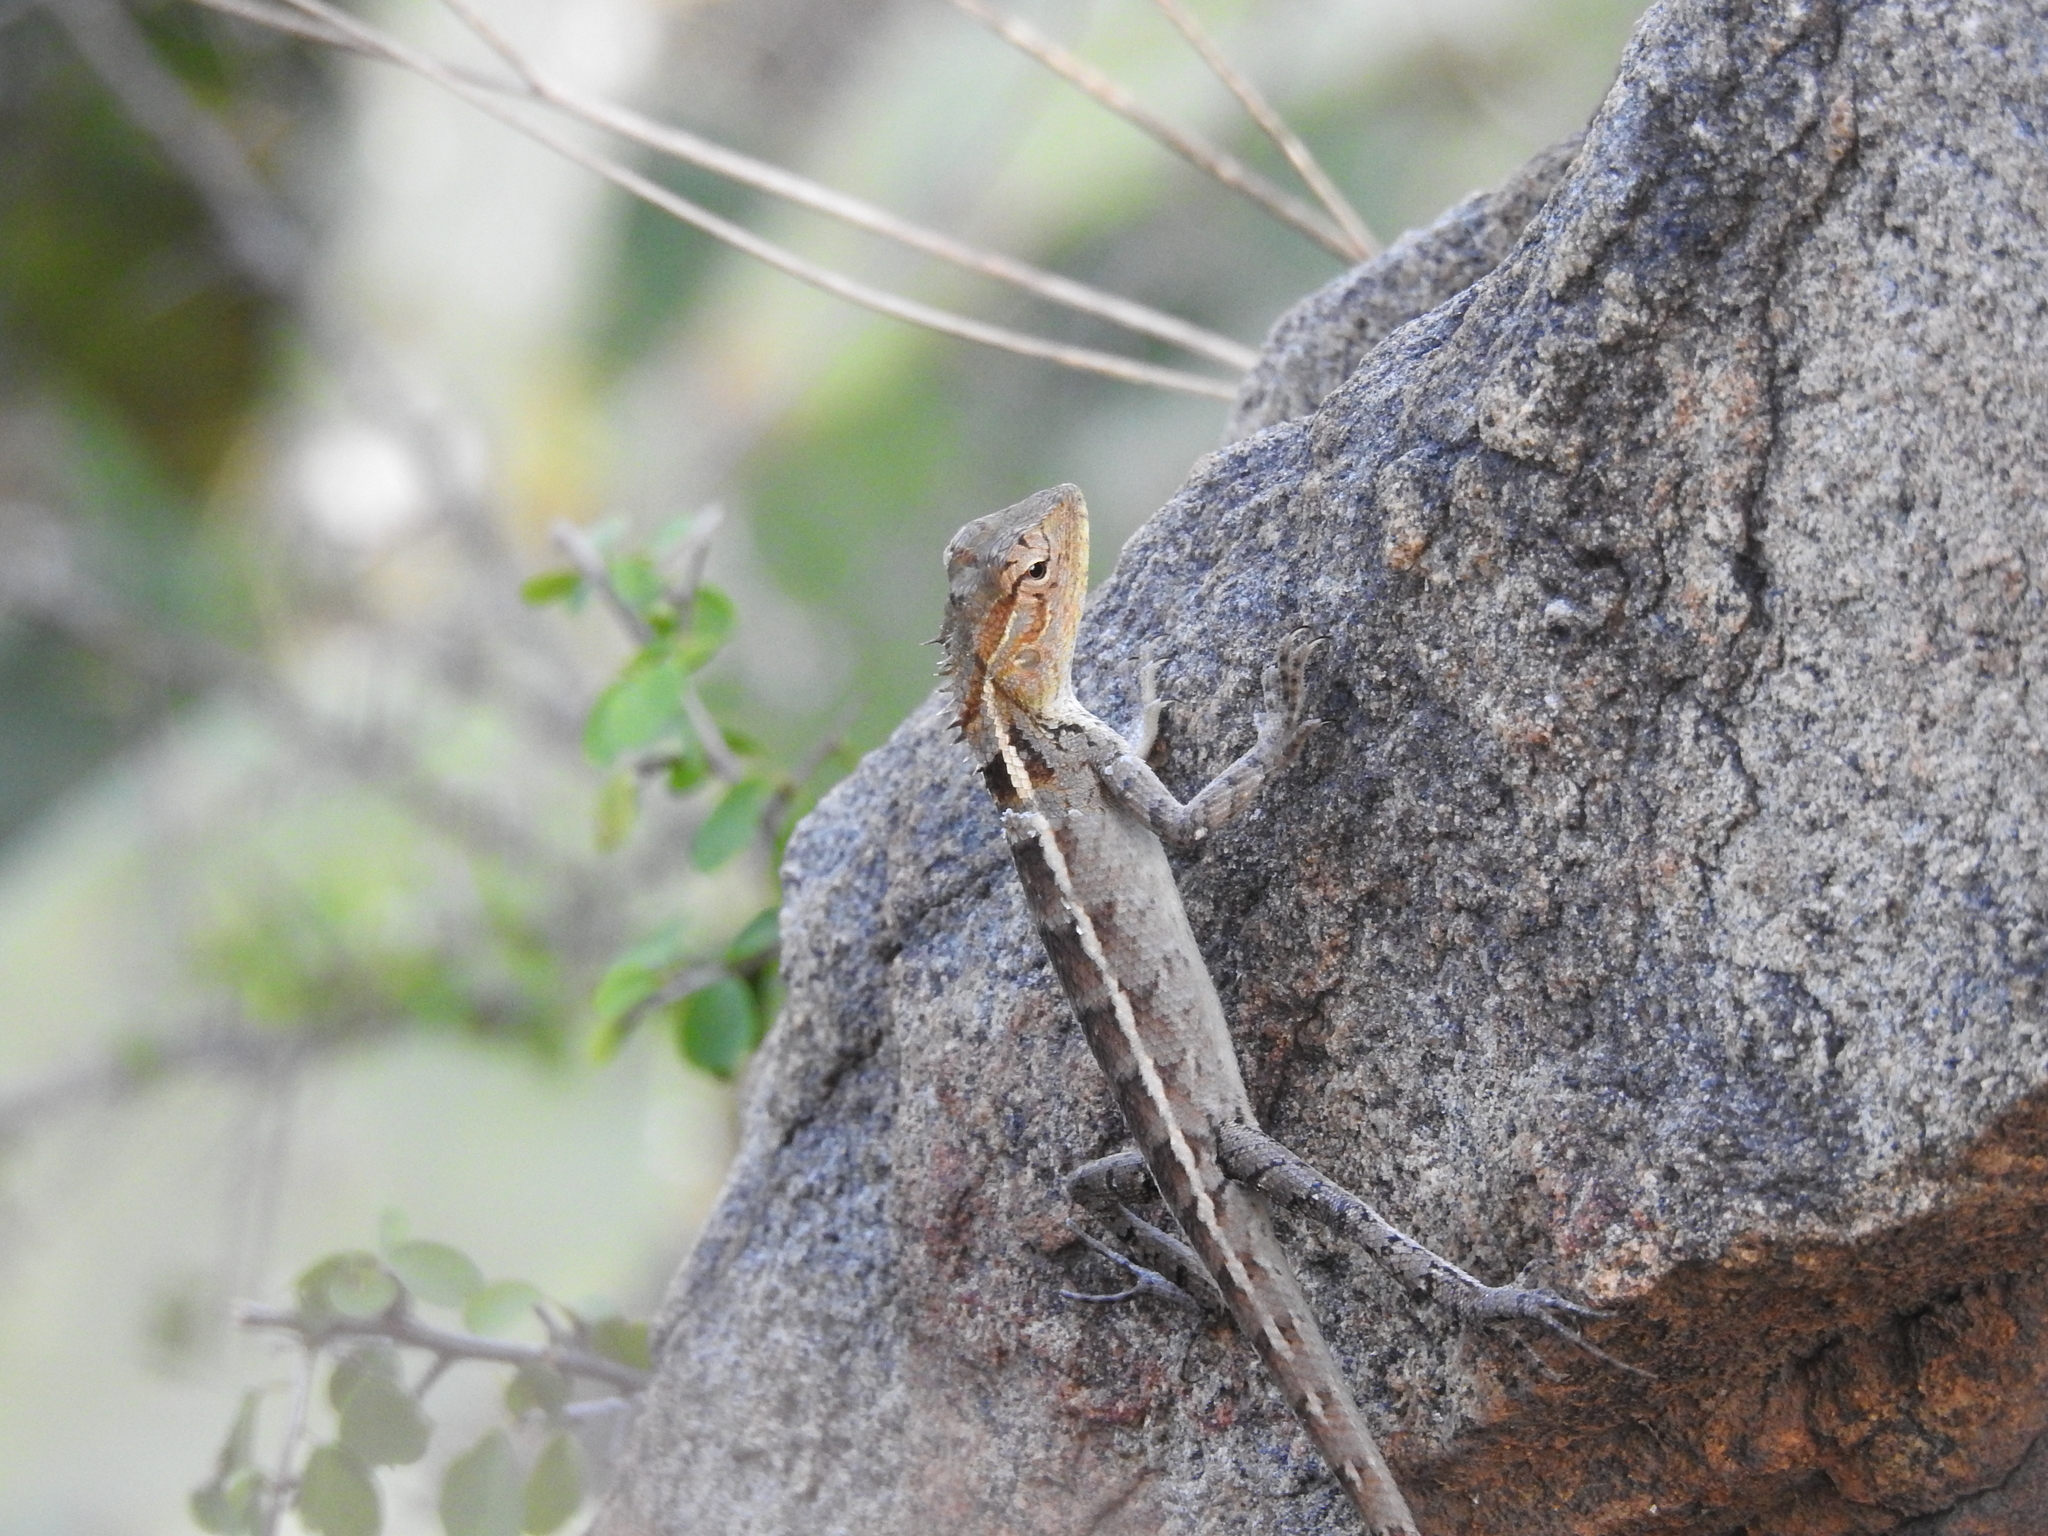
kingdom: Animalia
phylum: Chordata
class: Squamata
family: Agamidae
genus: Calotes
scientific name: Calotes versicolor
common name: Oriental garden lizard
